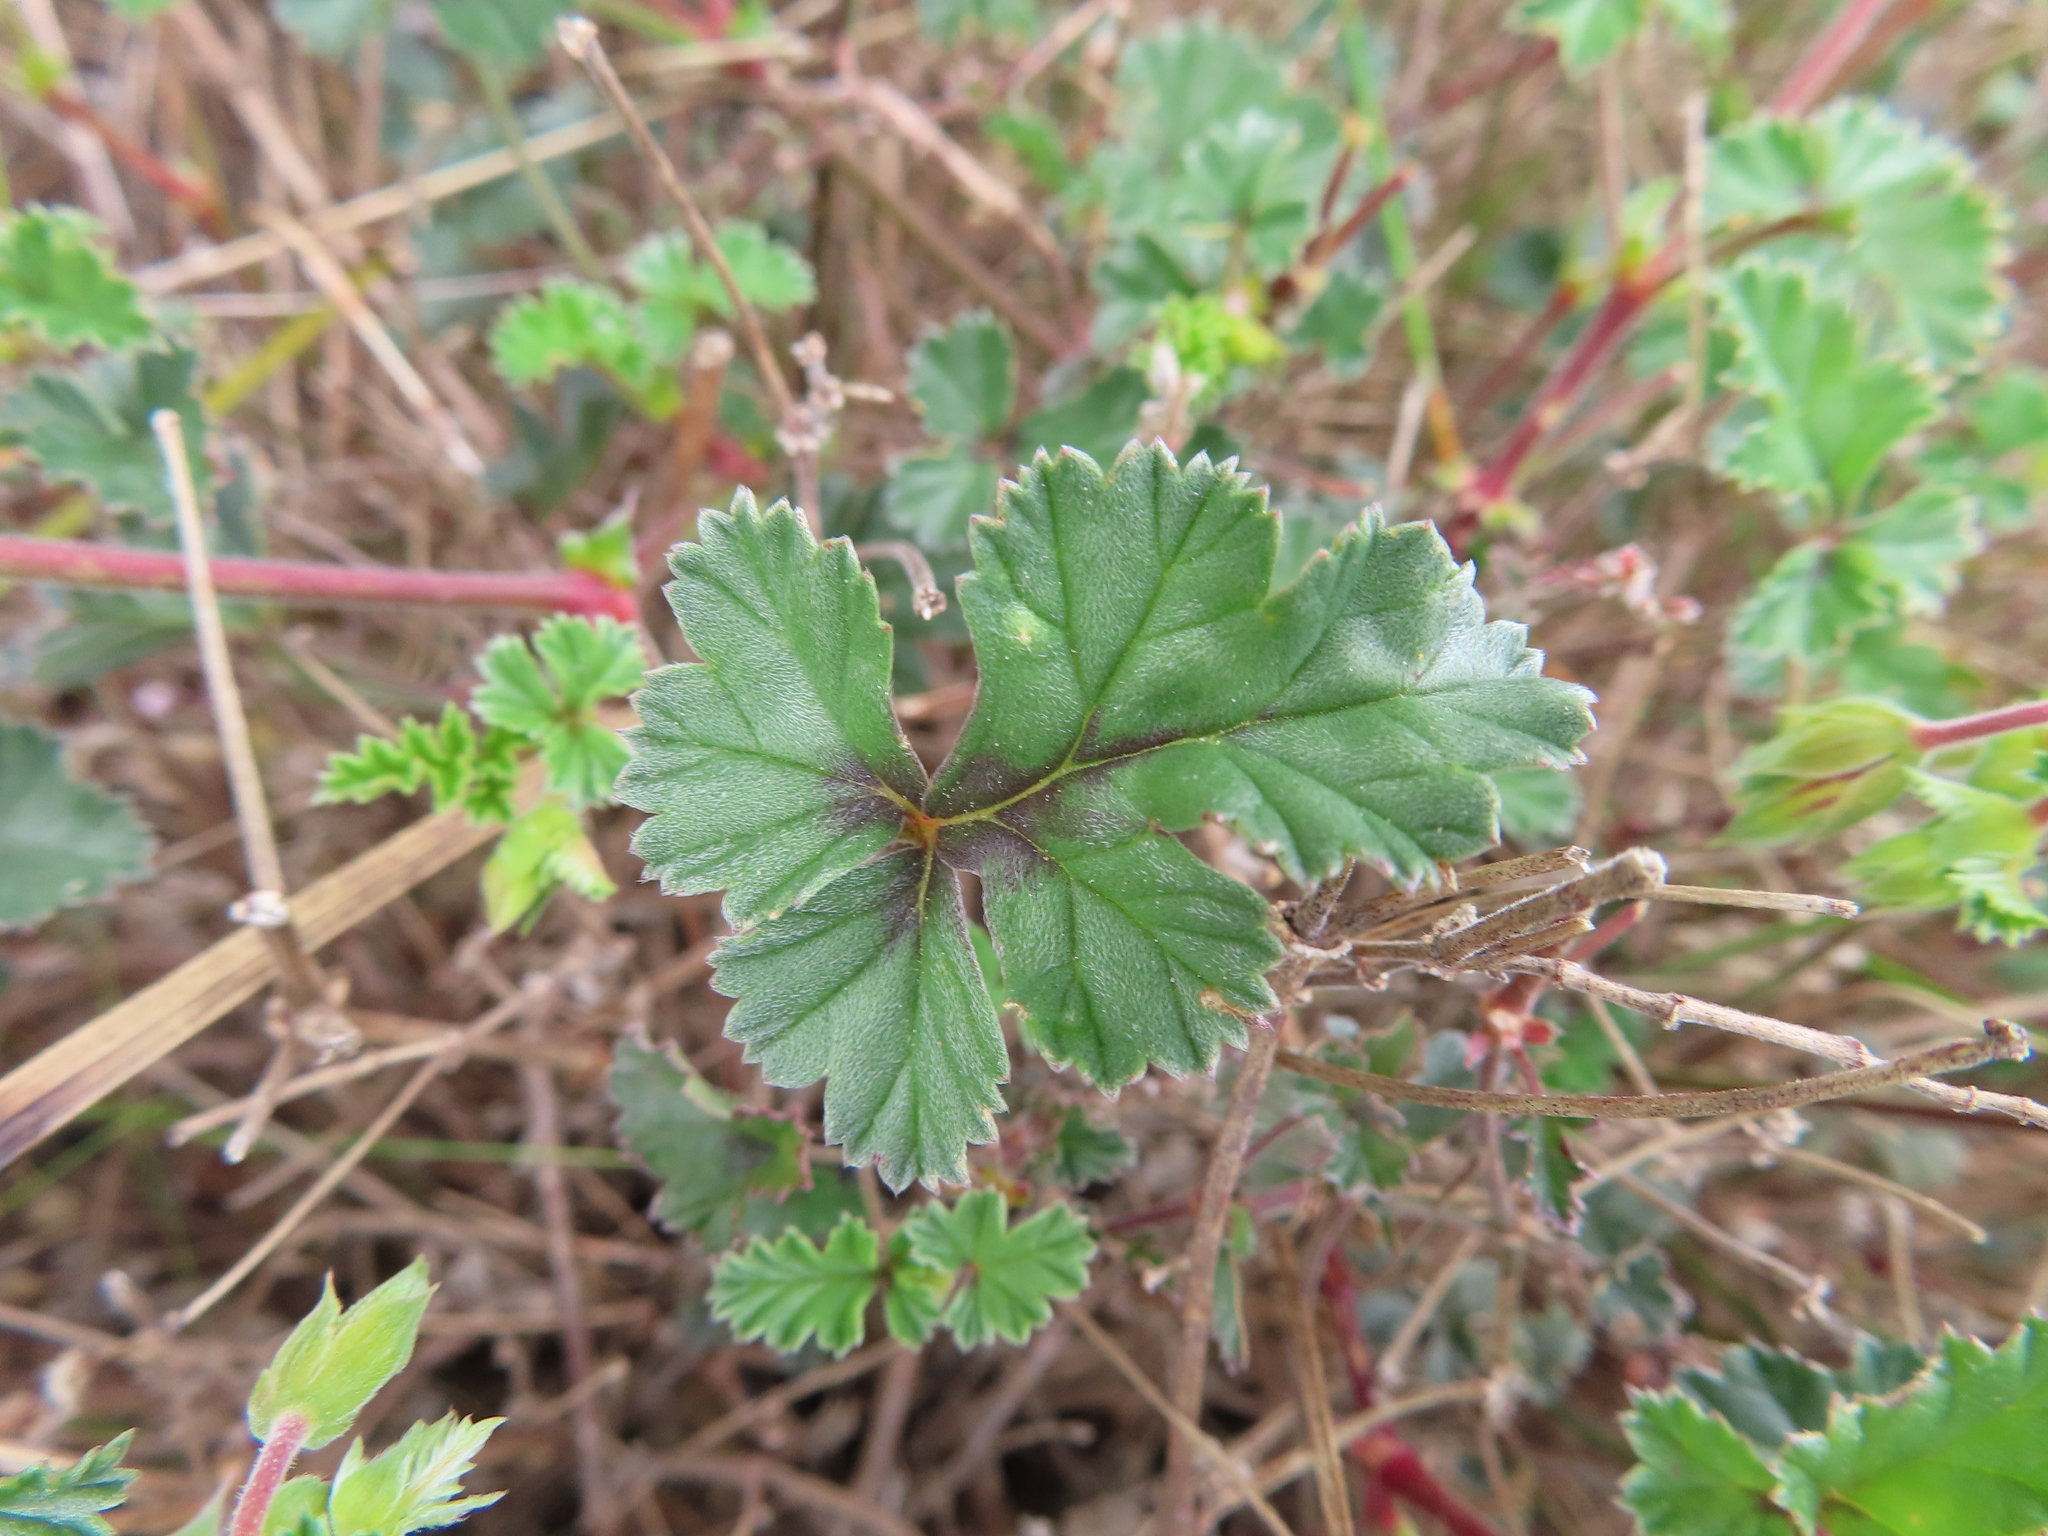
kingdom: Plantae
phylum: Tracheophyta
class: Magnoliopsida
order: Geraniales
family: Geraniaceae
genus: Pelargonium
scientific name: Pelargonium candicans
